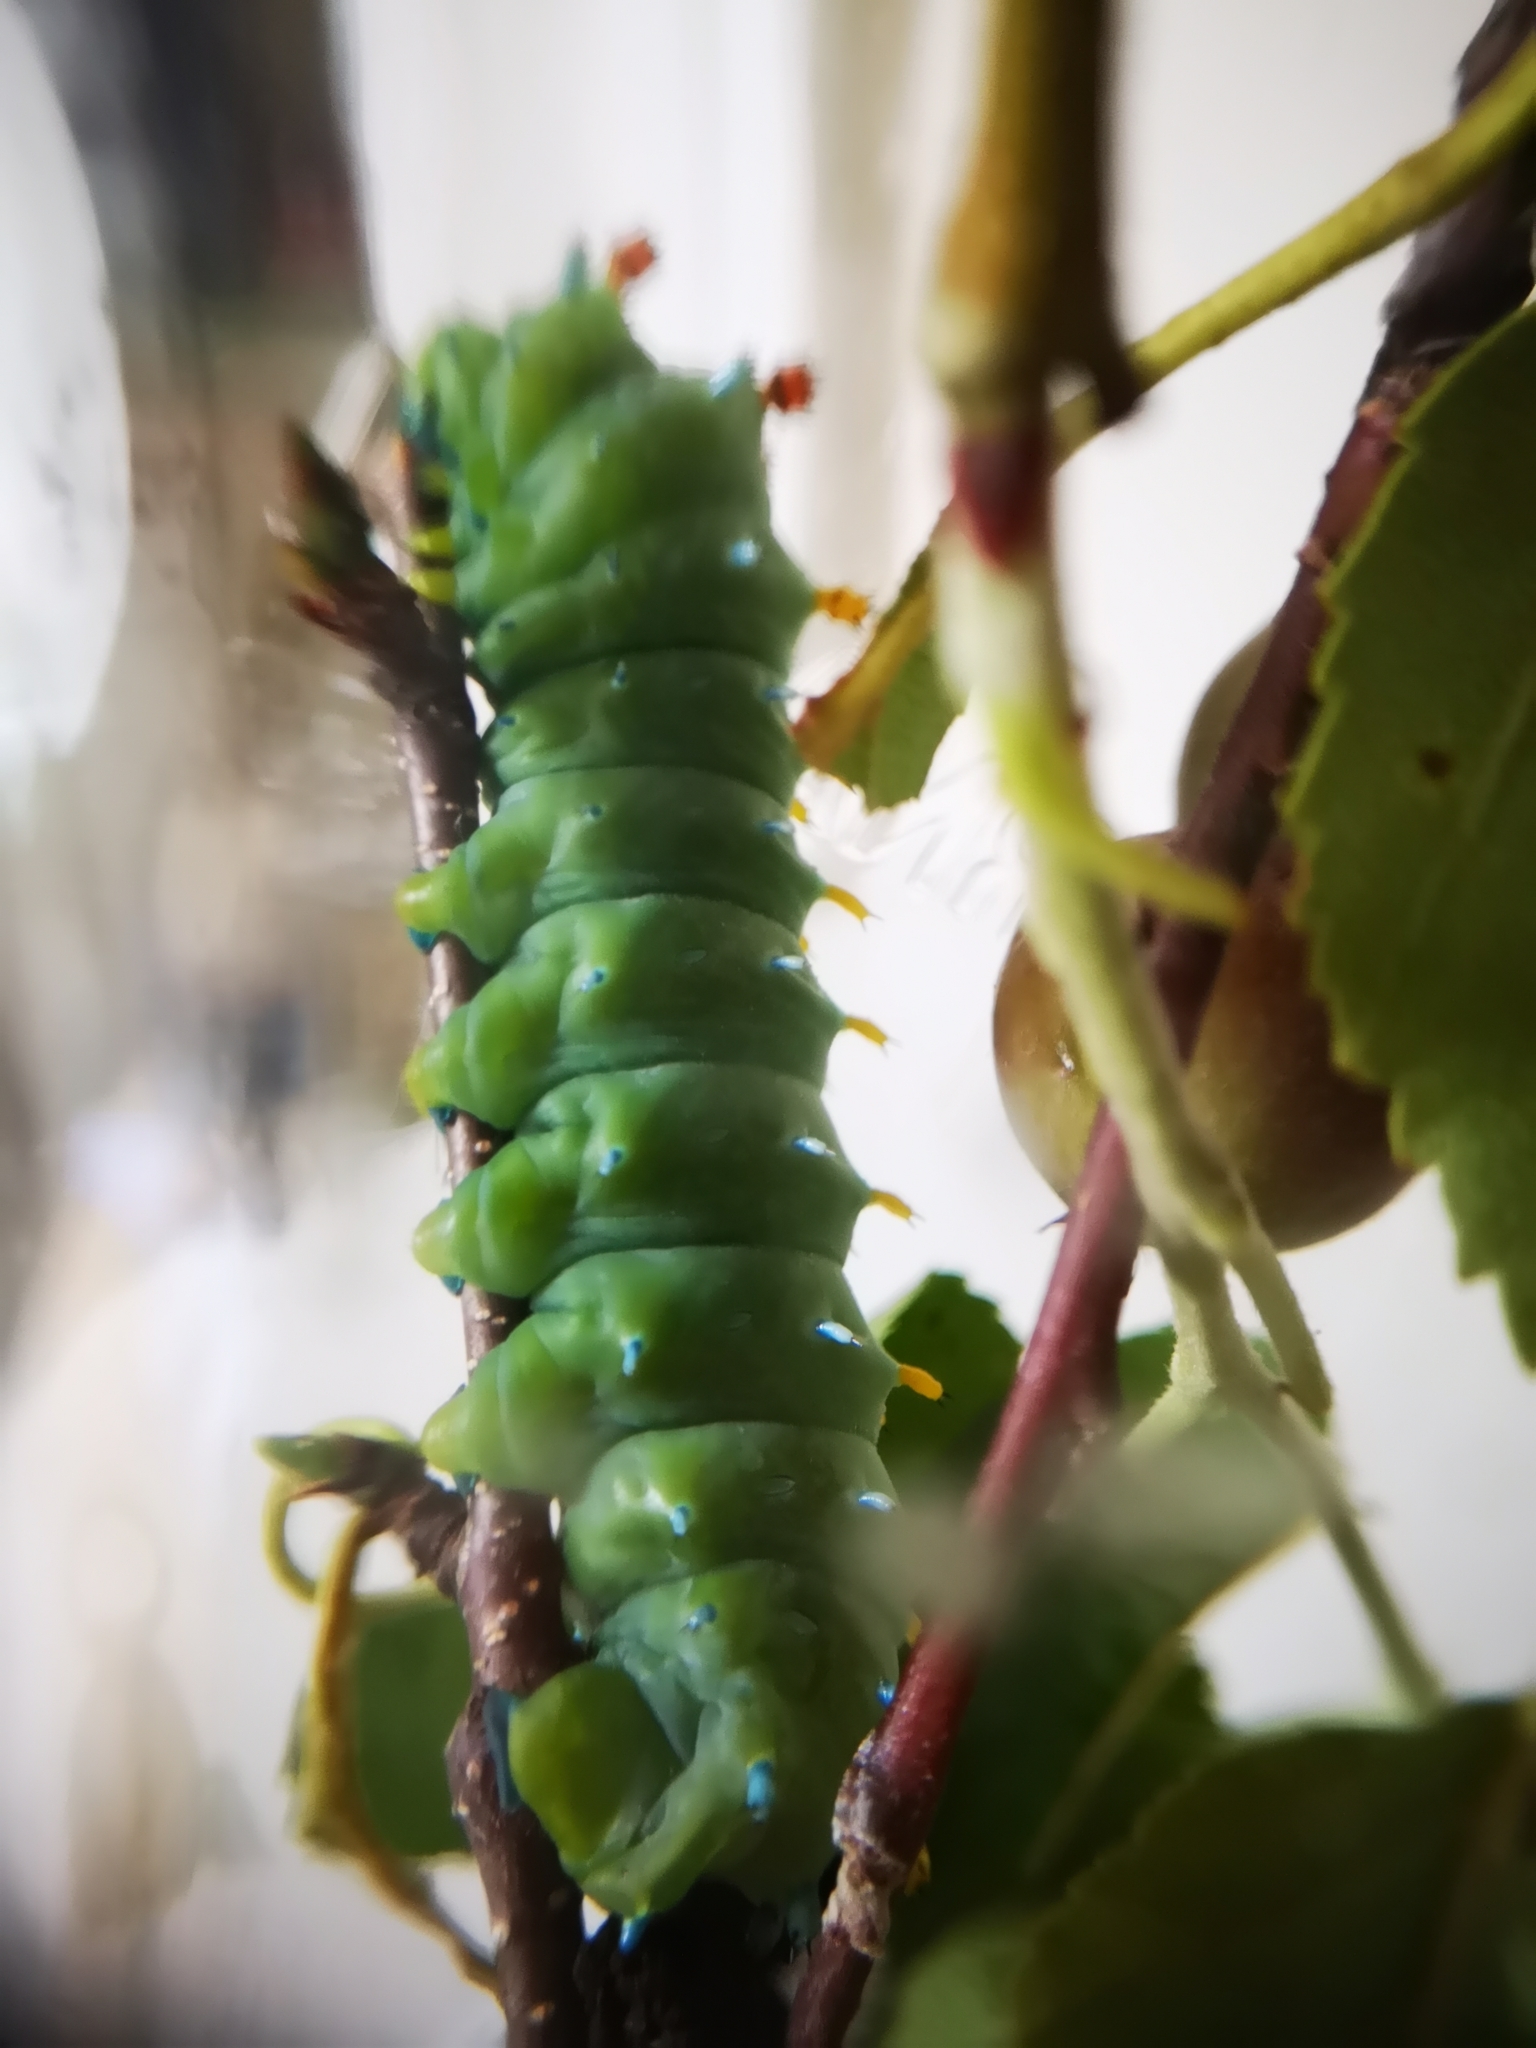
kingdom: Animalia
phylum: Arthropoda
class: Insecta
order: Lepidoptera
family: Saturniidae
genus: Hyalophora
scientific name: Hyalophora cecropia
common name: Cecropia silkmoth
